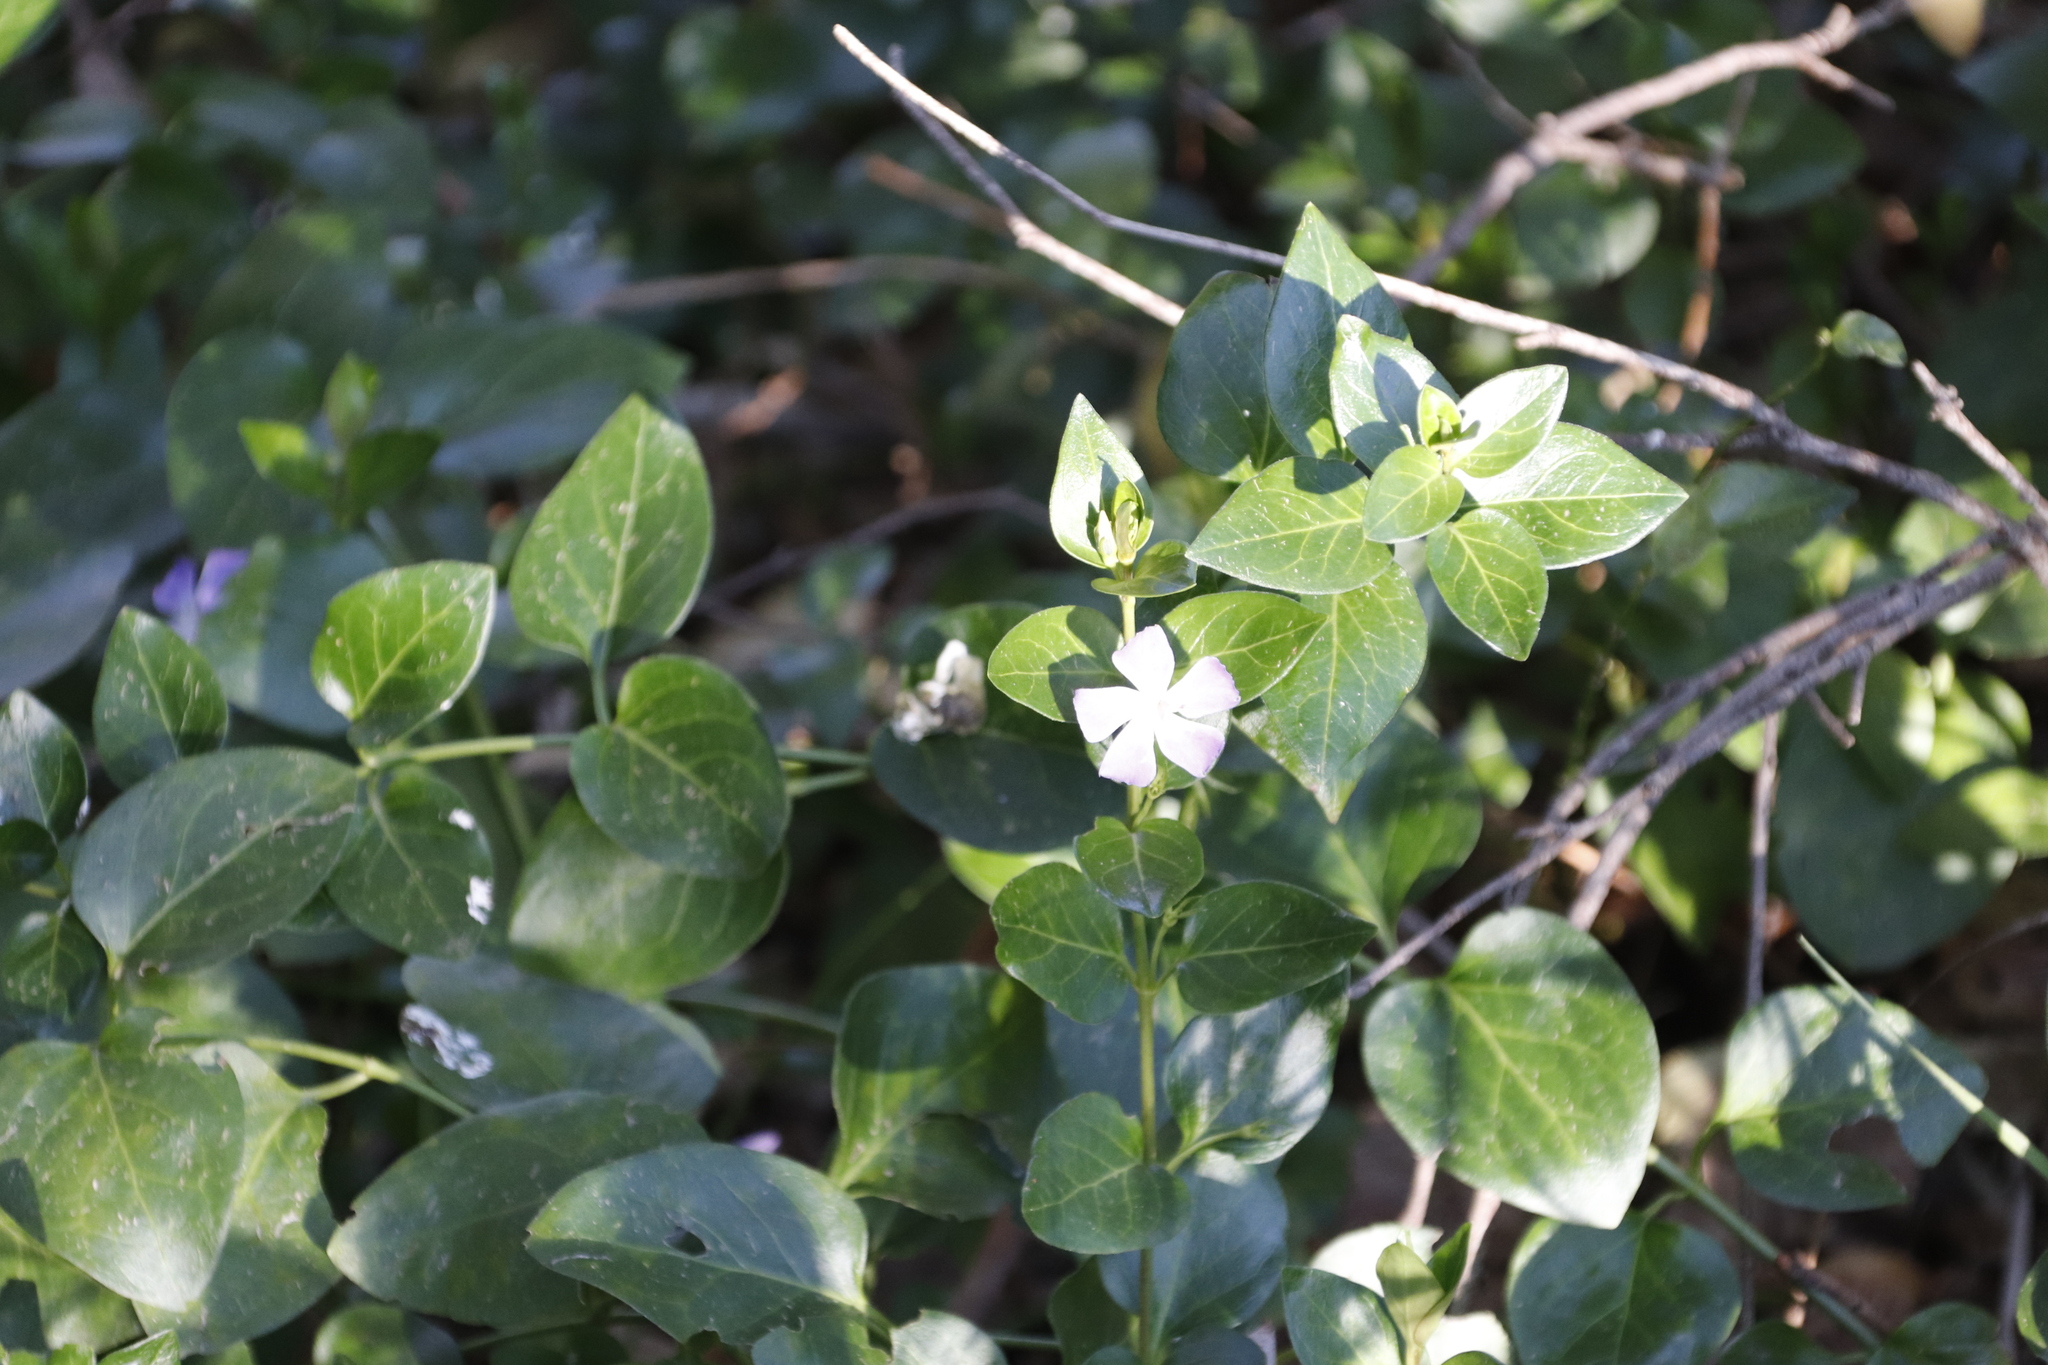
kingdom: Plantae
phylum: Tracheophyta
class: Magnoliopsida
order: Gentianales
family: Apocynaceae
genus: Vinca
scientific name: Vinca major
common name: Greater periwinkle
